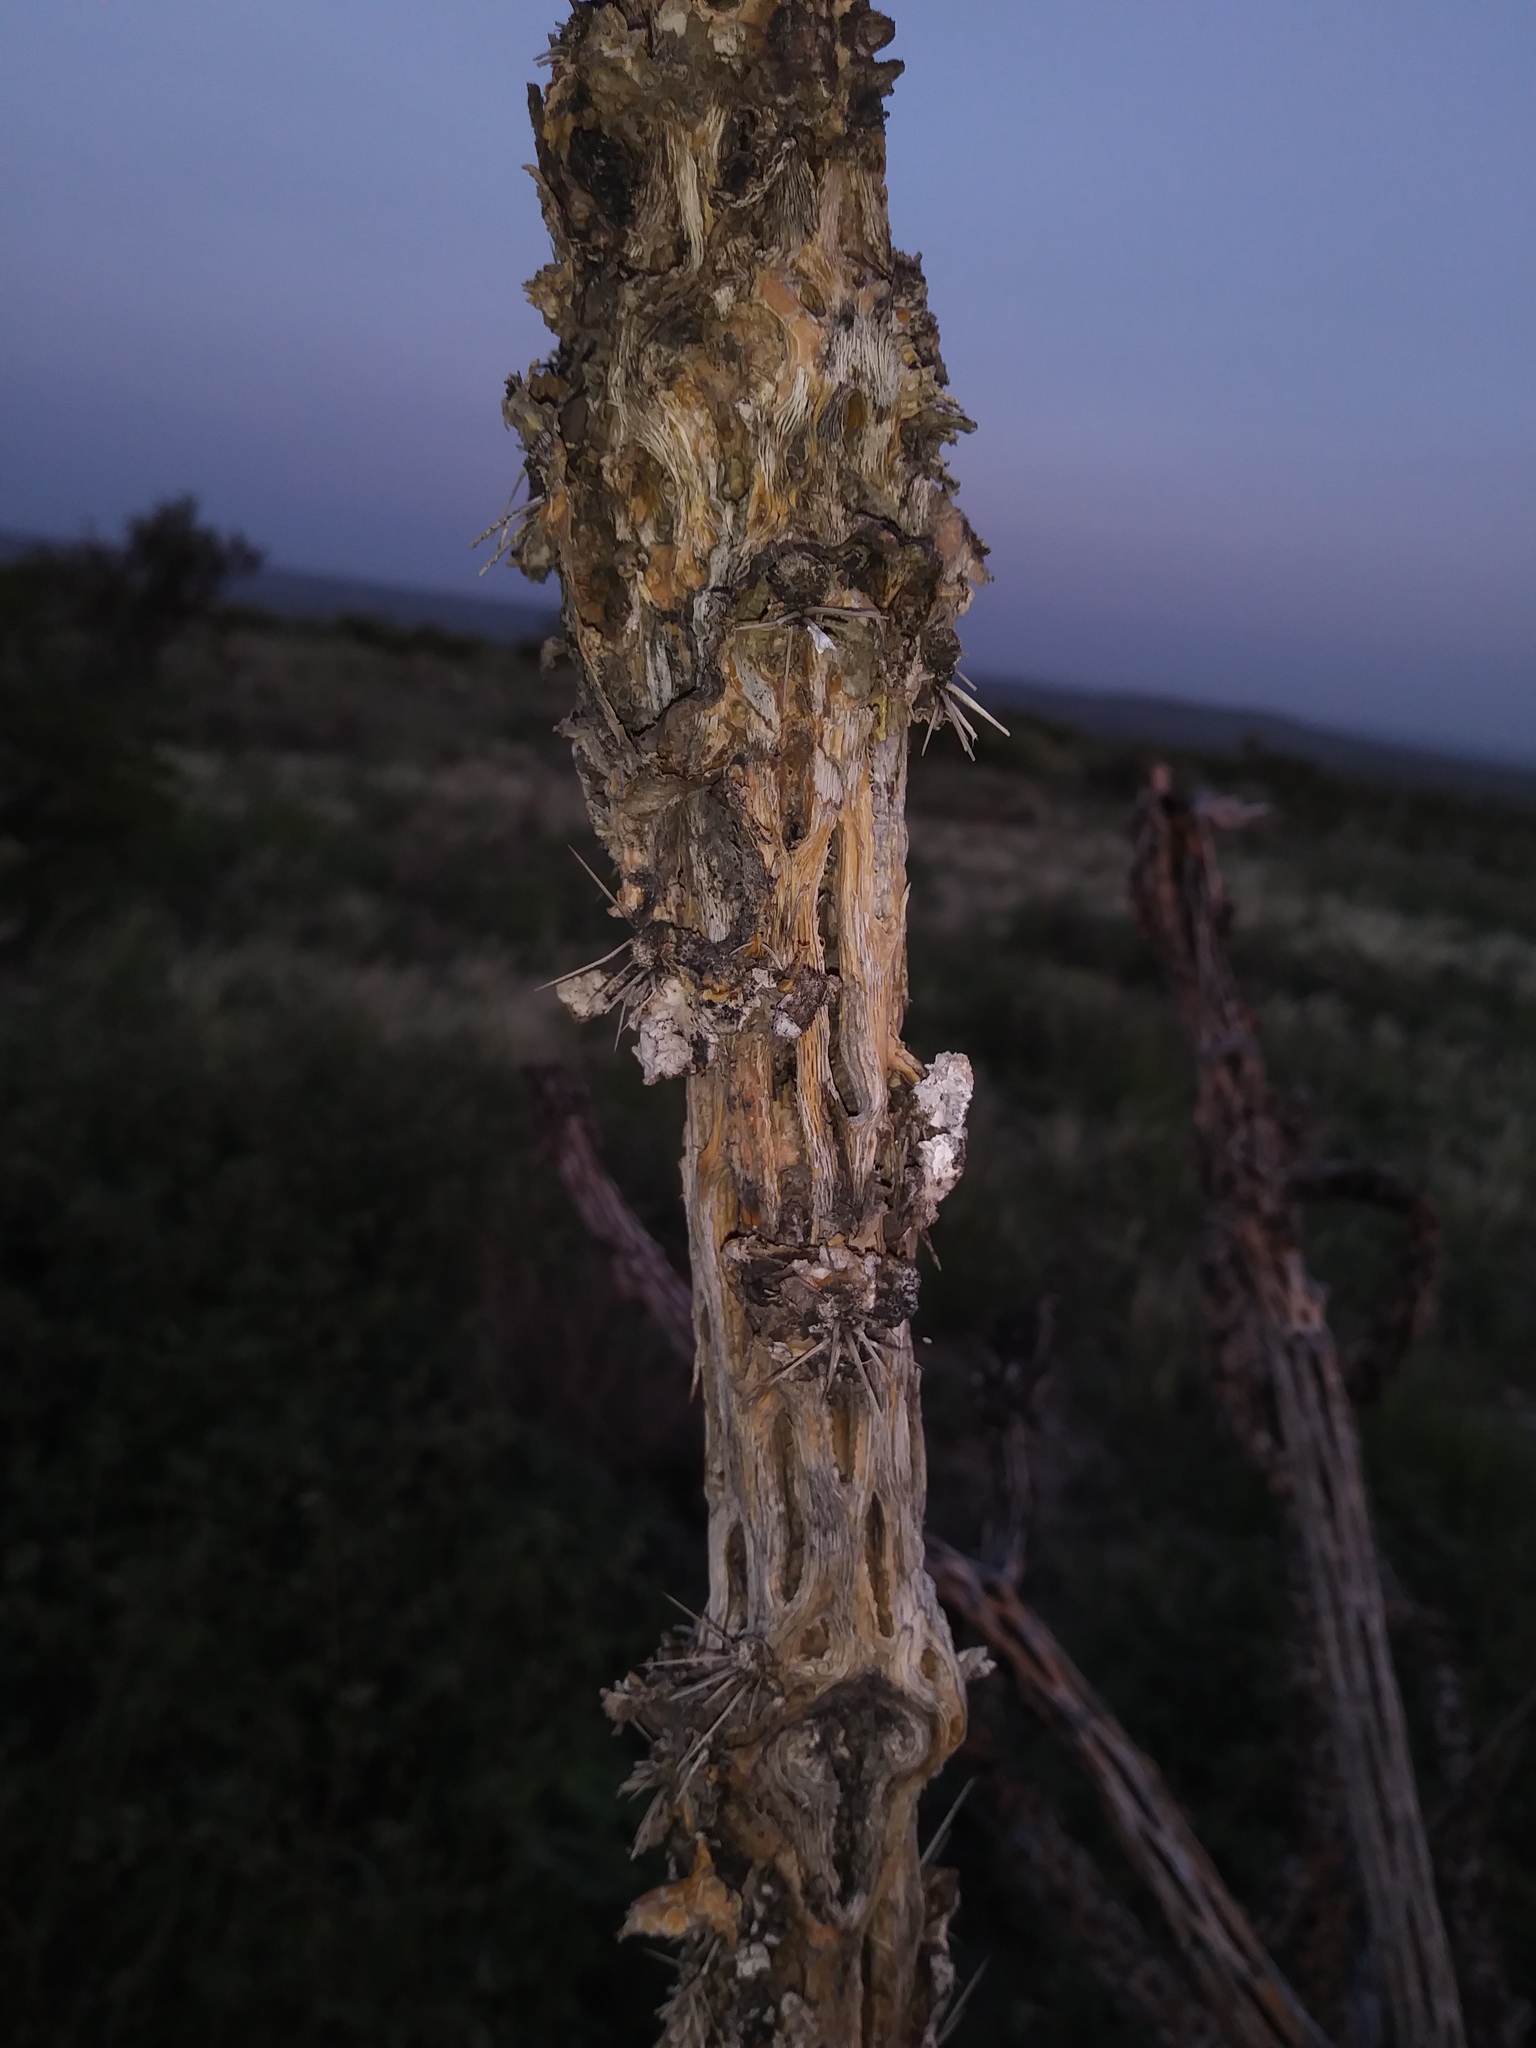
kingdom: Plantae
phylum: Tracheophyta
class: Magnoliopsida
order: Caryophyllales
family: Cactaceae
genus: Cylindropuntia
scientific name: Cylindropuntia imbricata
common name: Candelabrum cactus
